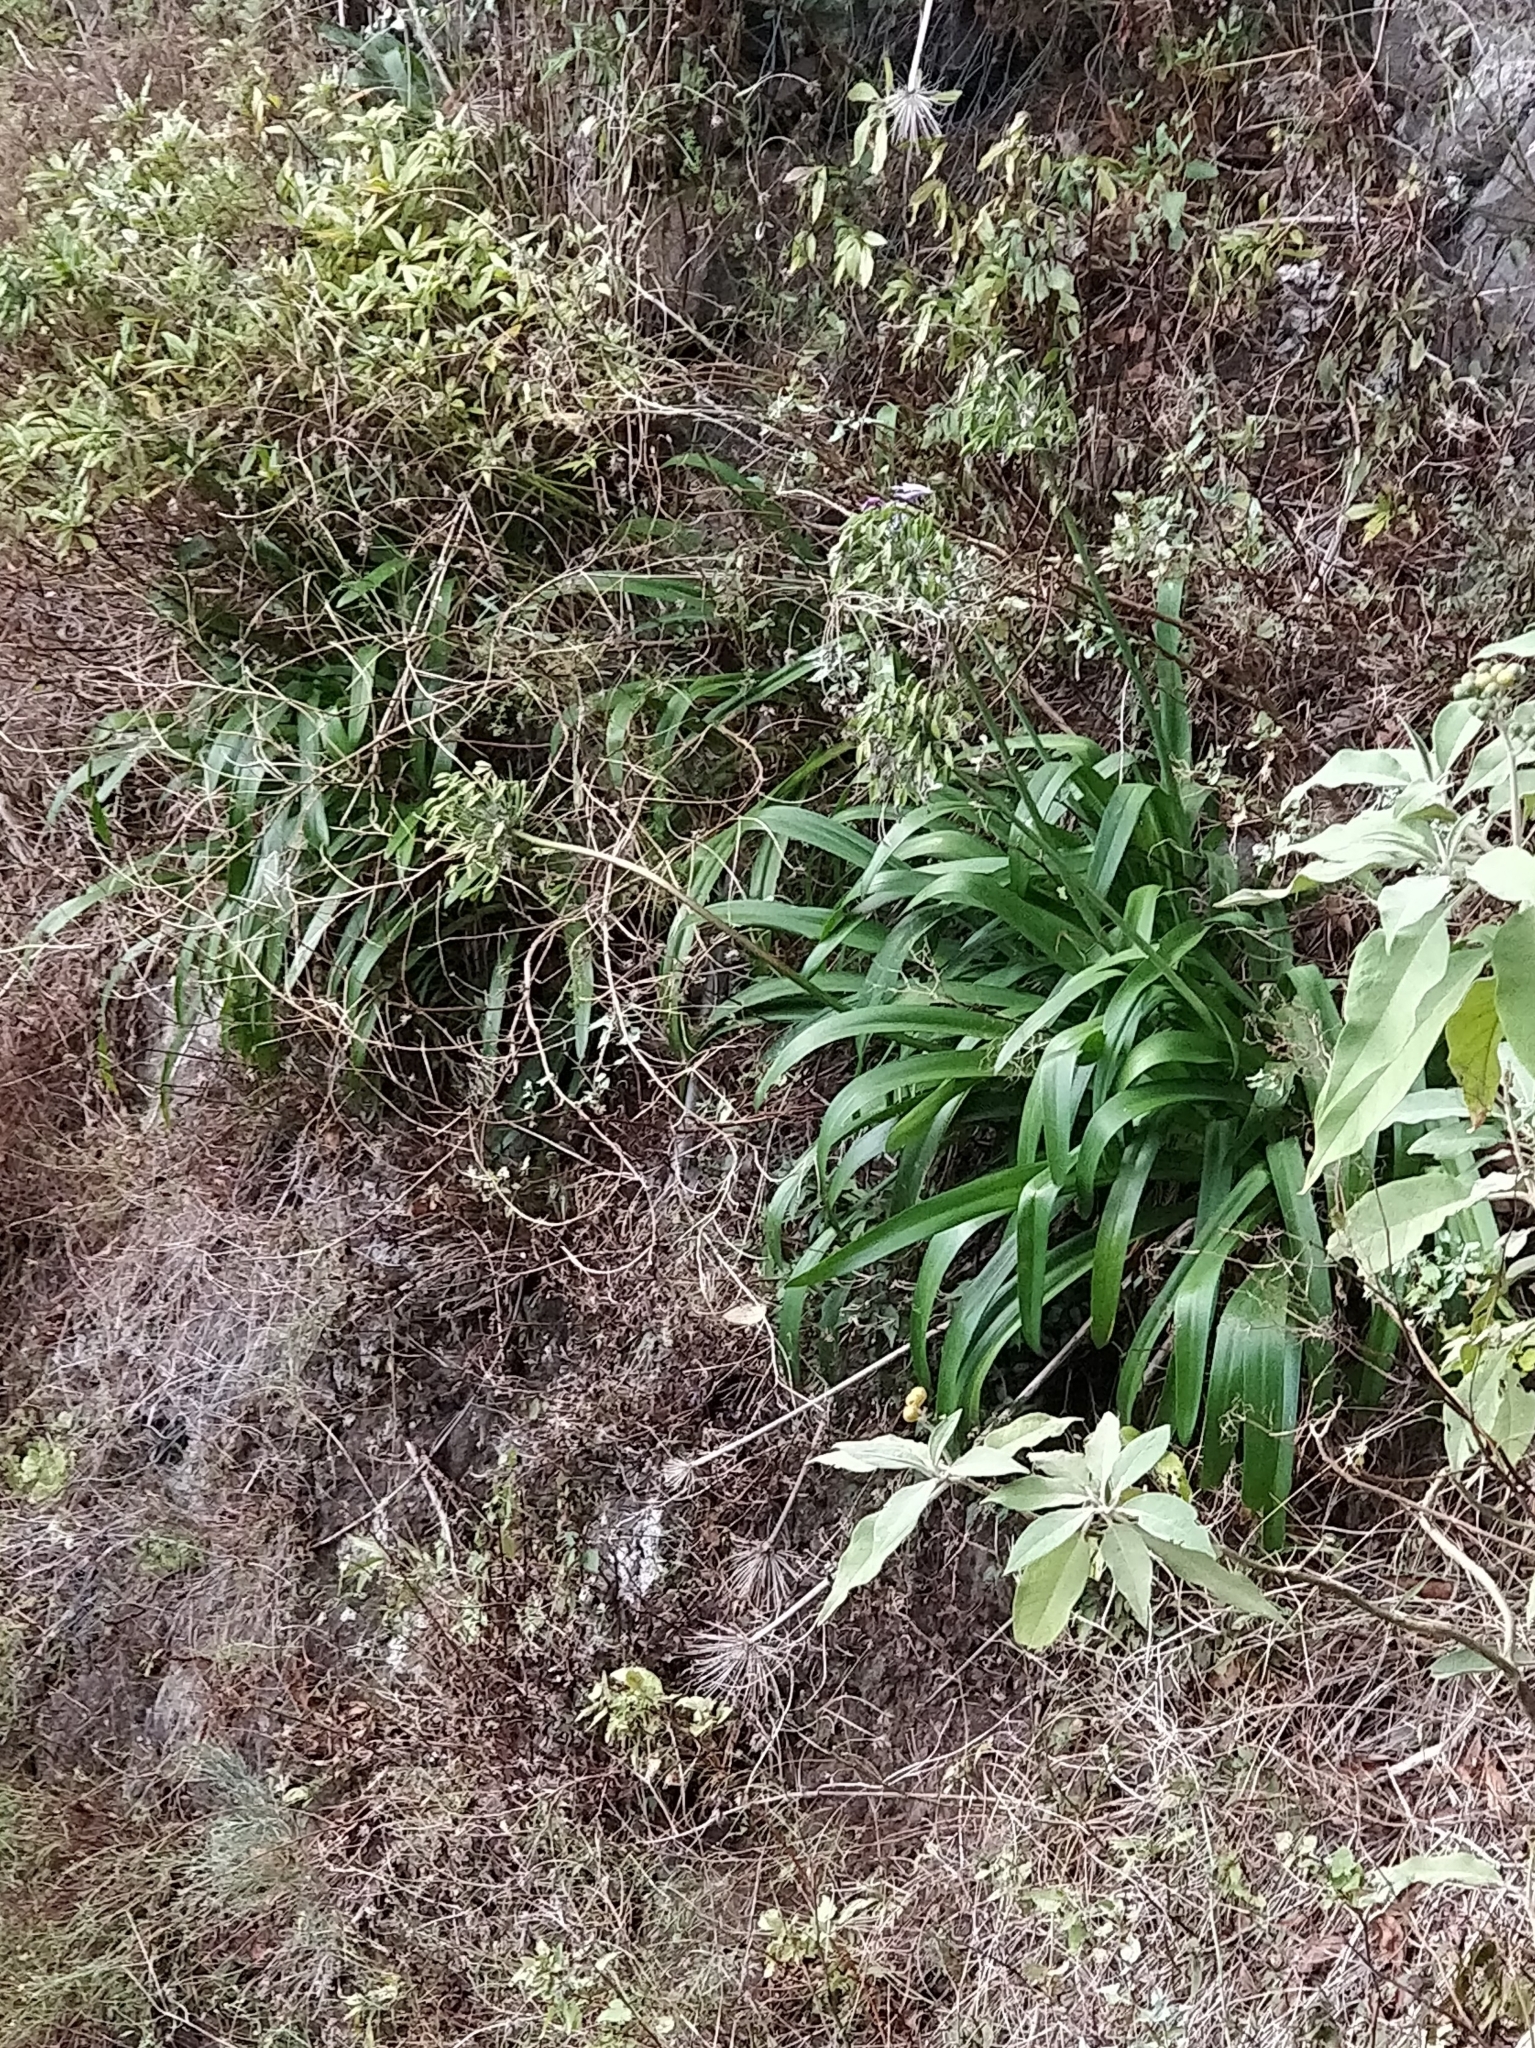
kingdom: Plantae
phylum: Tracheophyta
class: Liliopsida
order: Asparagales
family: Amaryllidaceae
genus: Agapanthus
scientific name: Agapanthus praecox
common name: African-lily
